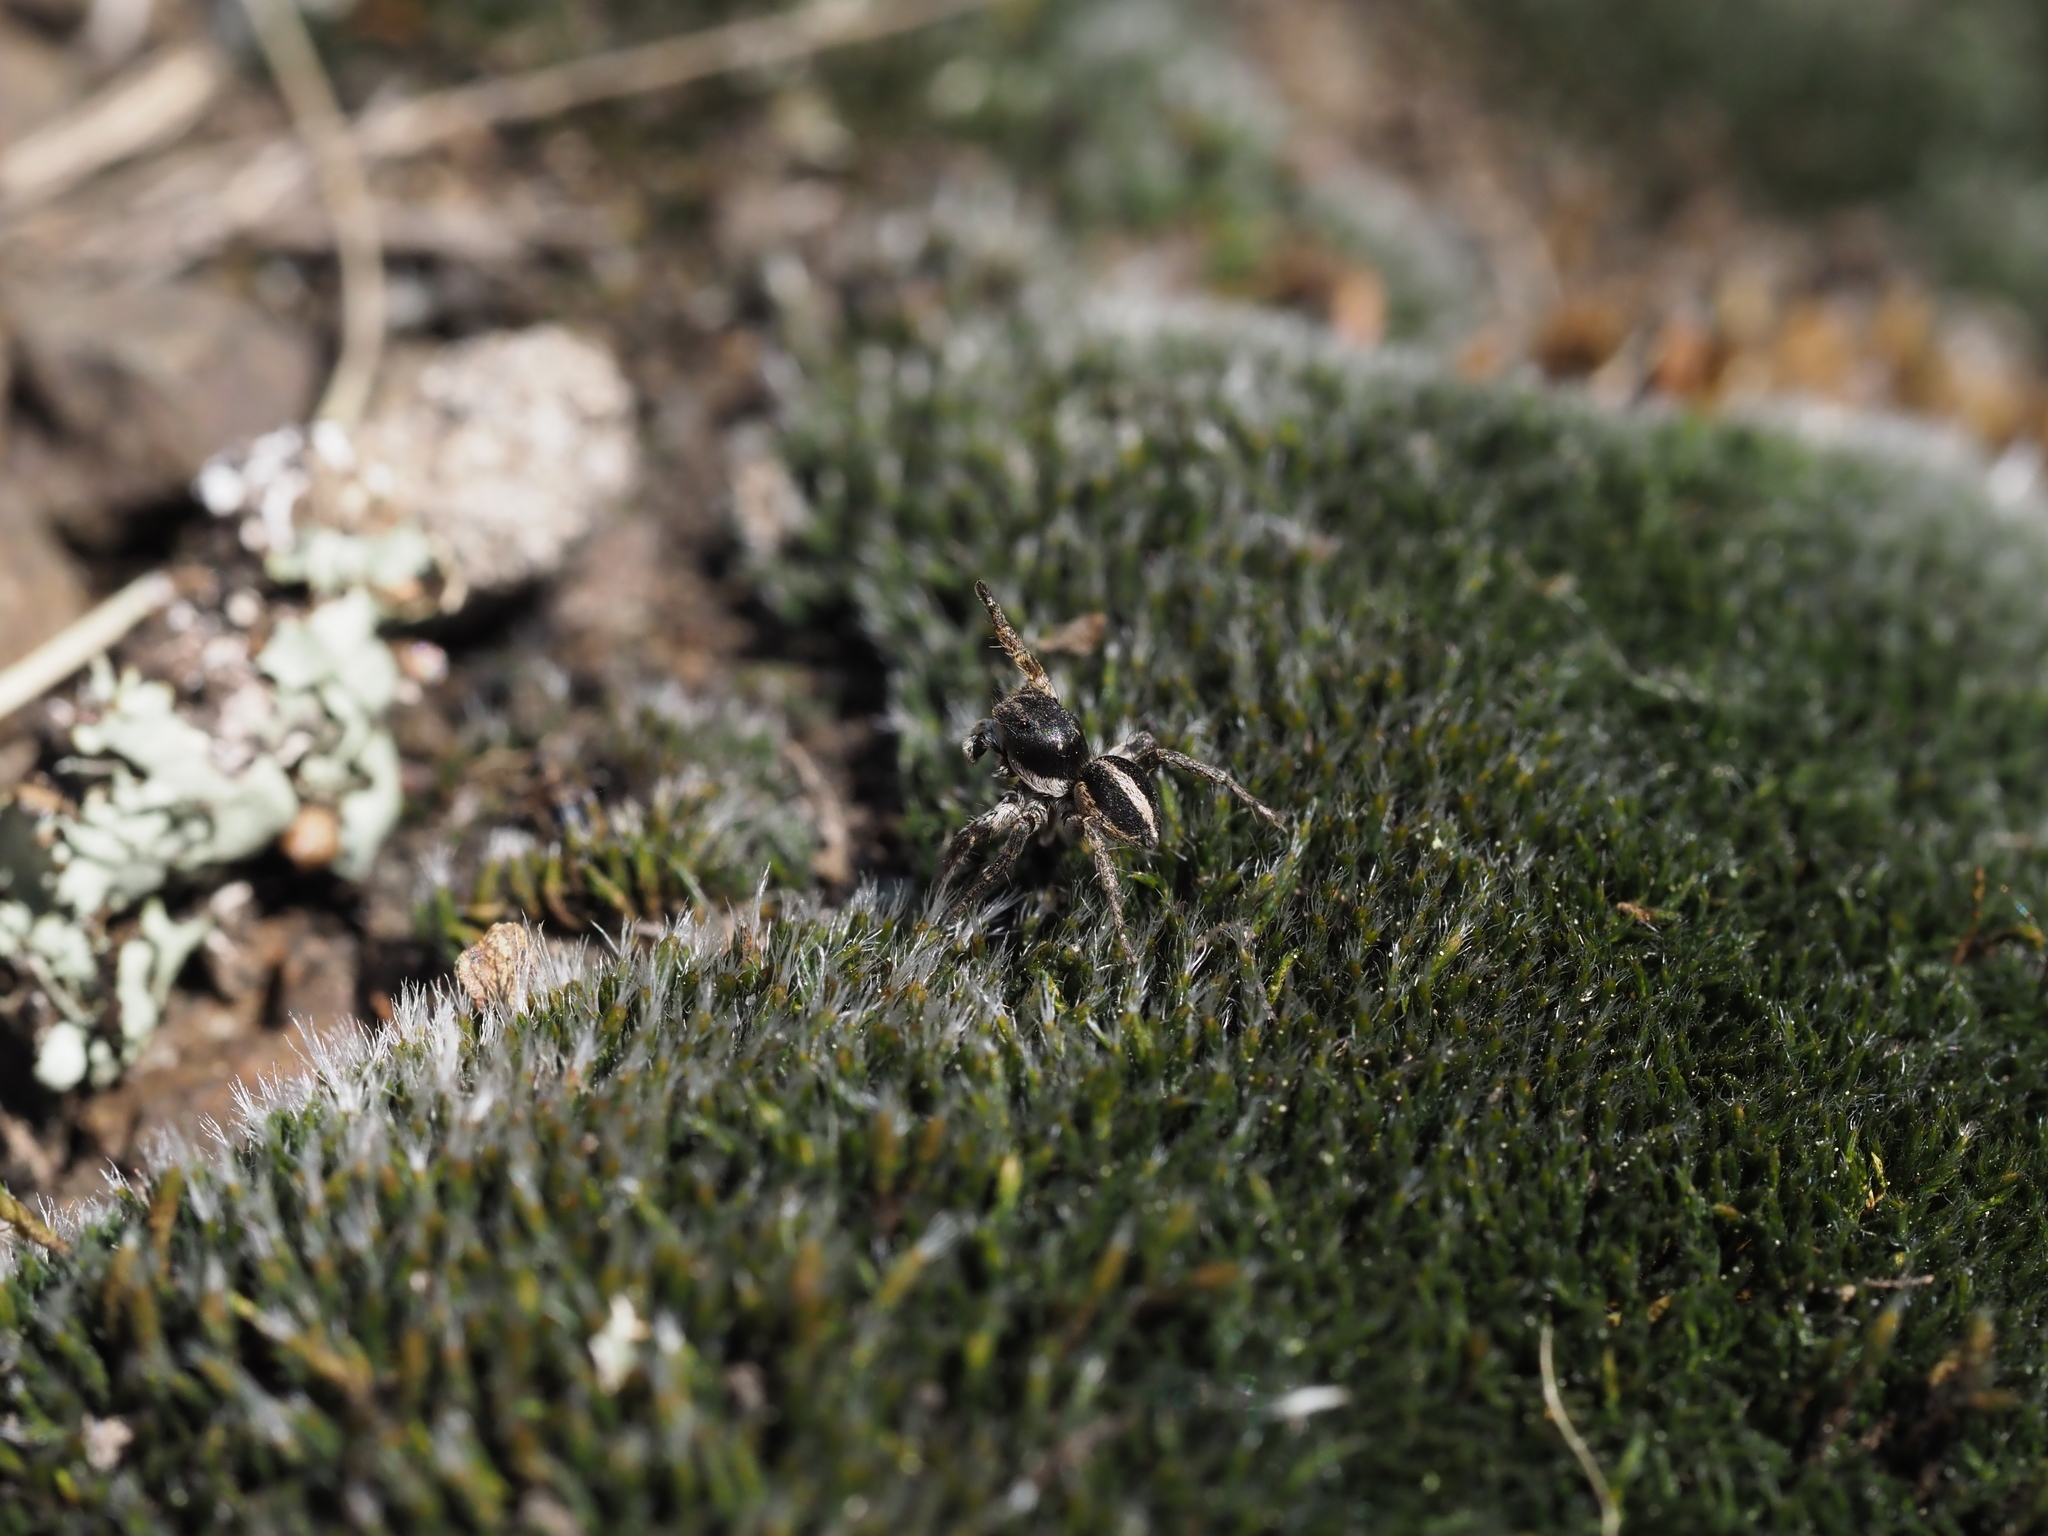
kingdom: Animalia
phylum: Arthropoda
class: Arachnida
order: Araneae
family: Salticidae
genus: Aelurillus
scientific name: Aelurillus v-insignitus
